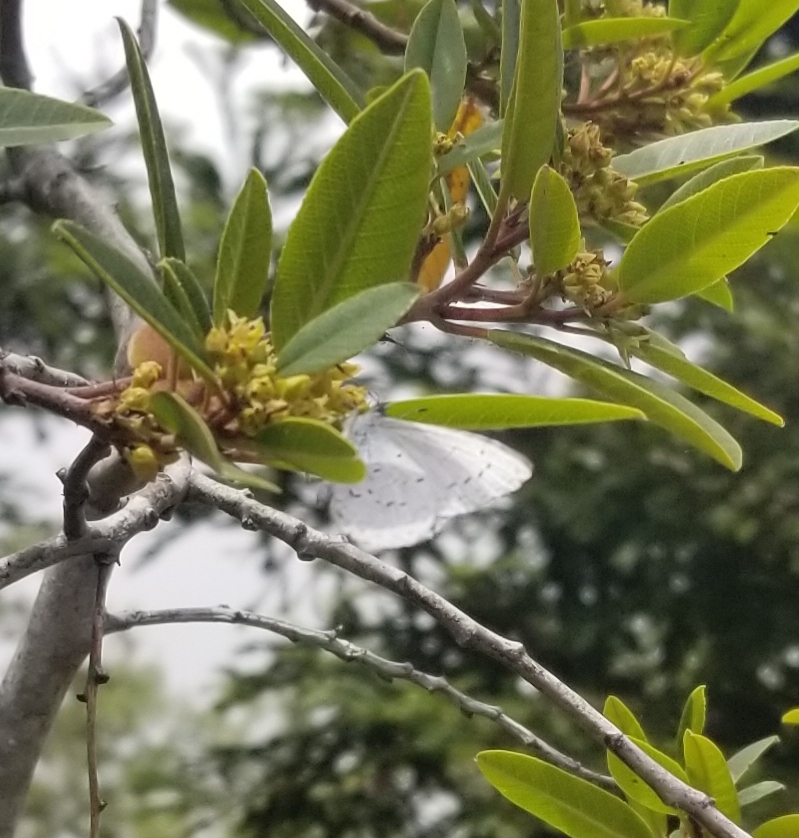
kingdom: Animalia
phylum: Arthropoda
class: Insecta
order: Lepidoptera
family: Lycaenidae
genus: Celastrina
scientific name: Celastrina ladon
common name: Spring azure
